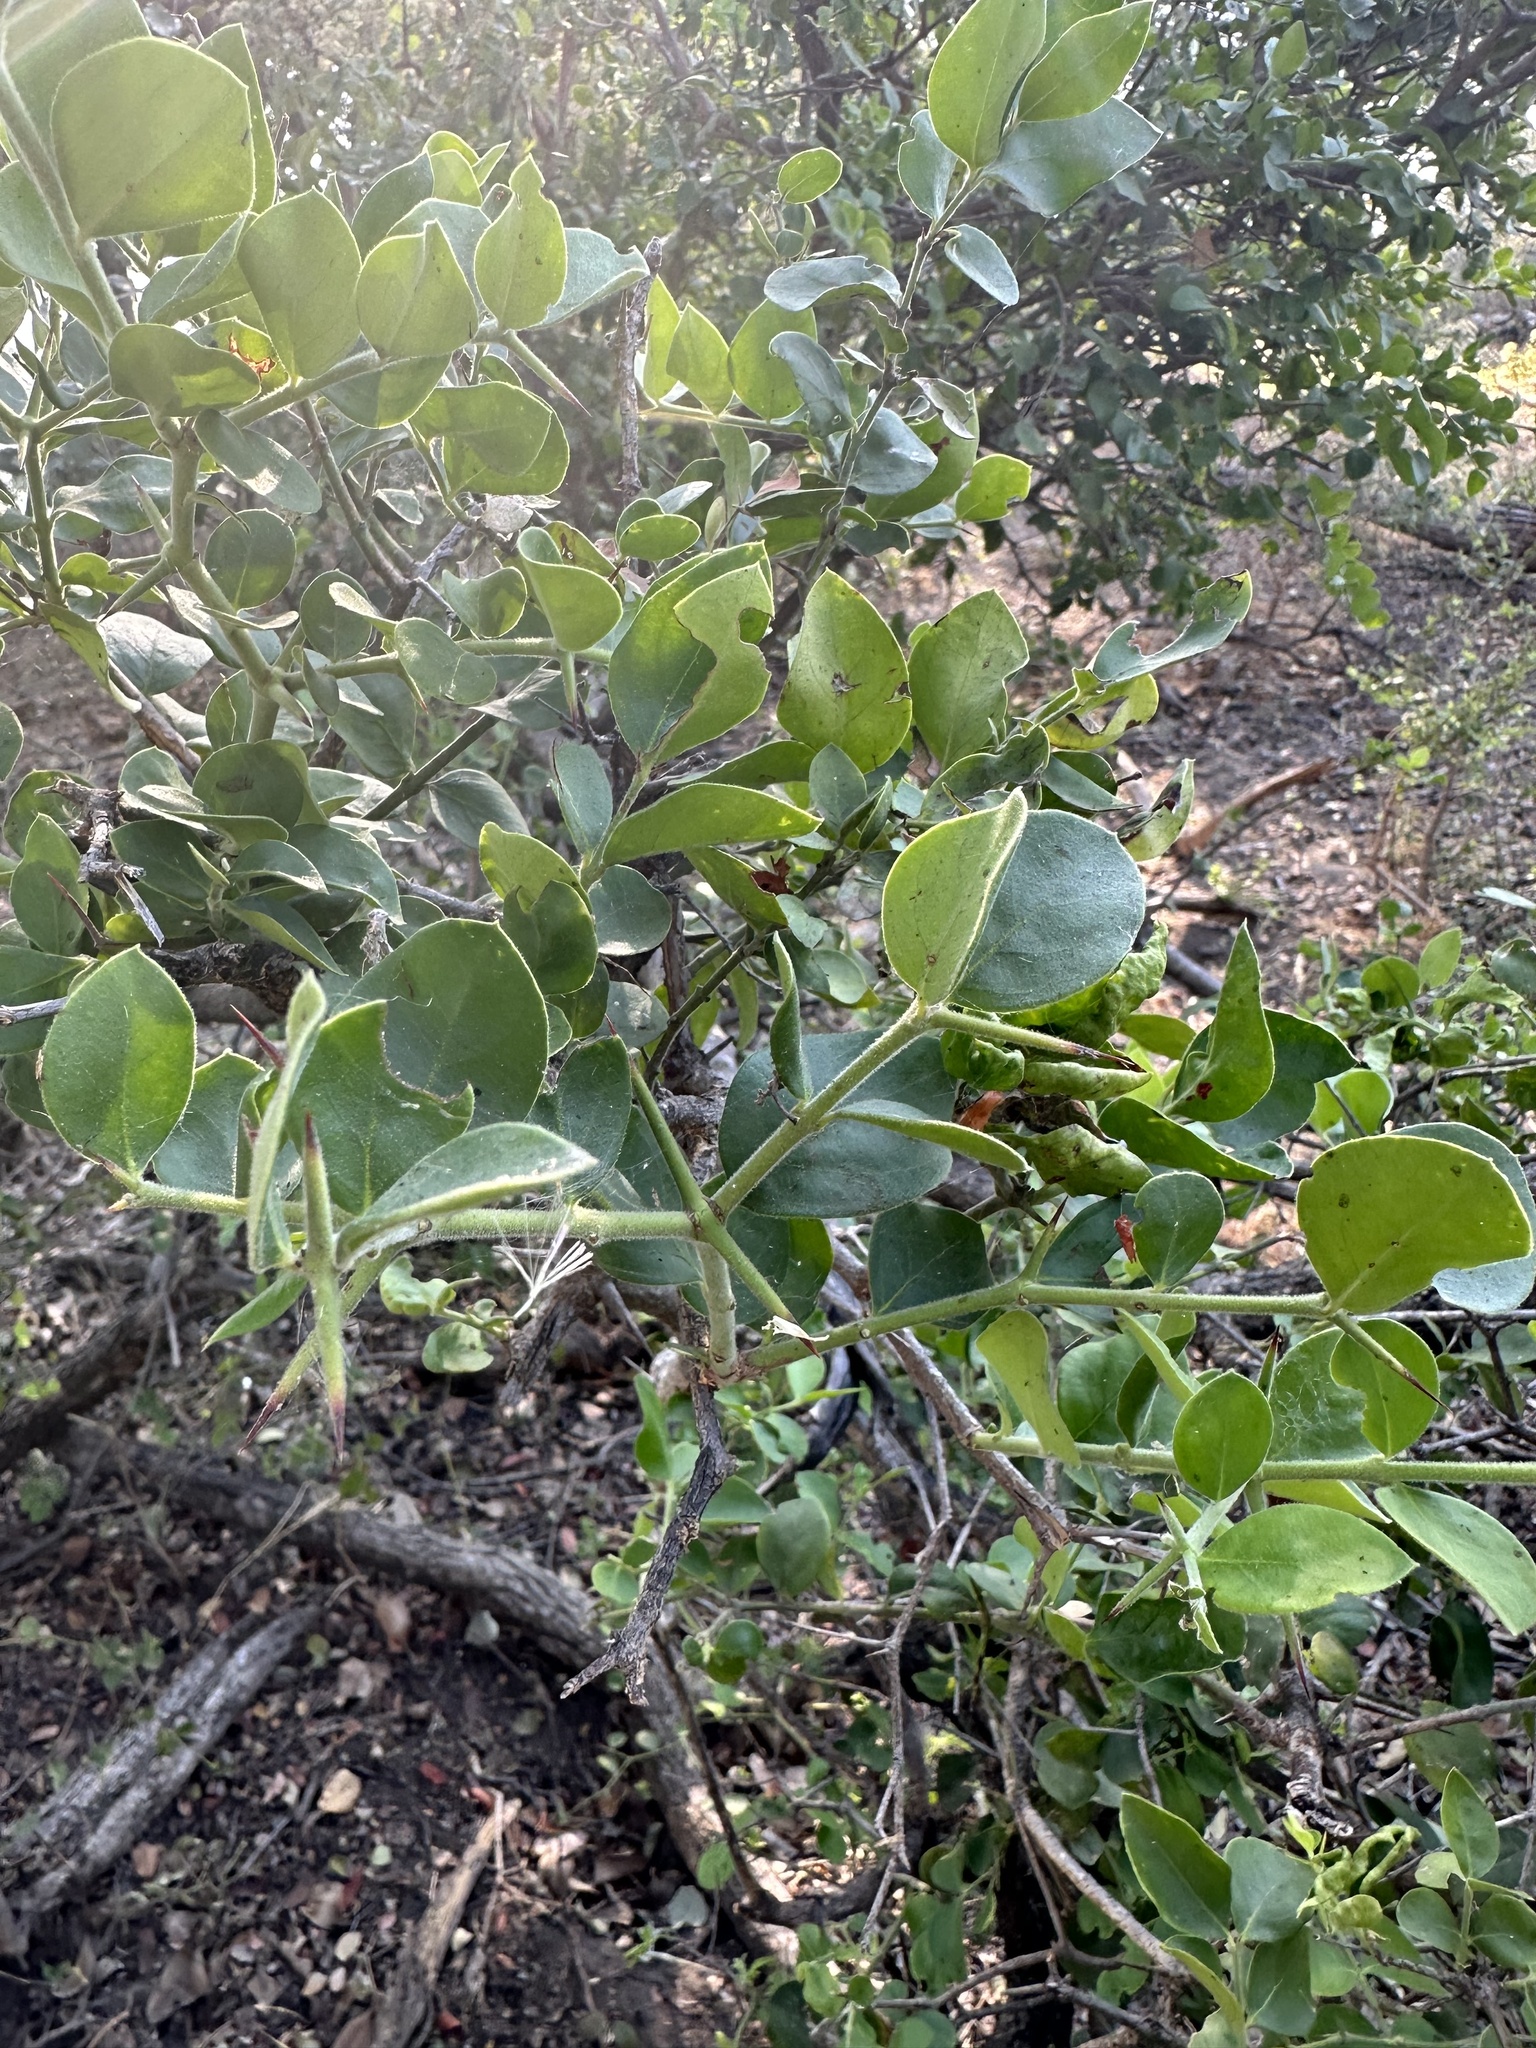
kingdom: Plantae
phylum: Tracheophyta
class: Magnoliopsida
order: Gentianales
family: Apocynaceae
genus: Carissa
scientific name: Carissa spinarum
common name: Egyptian carissa
